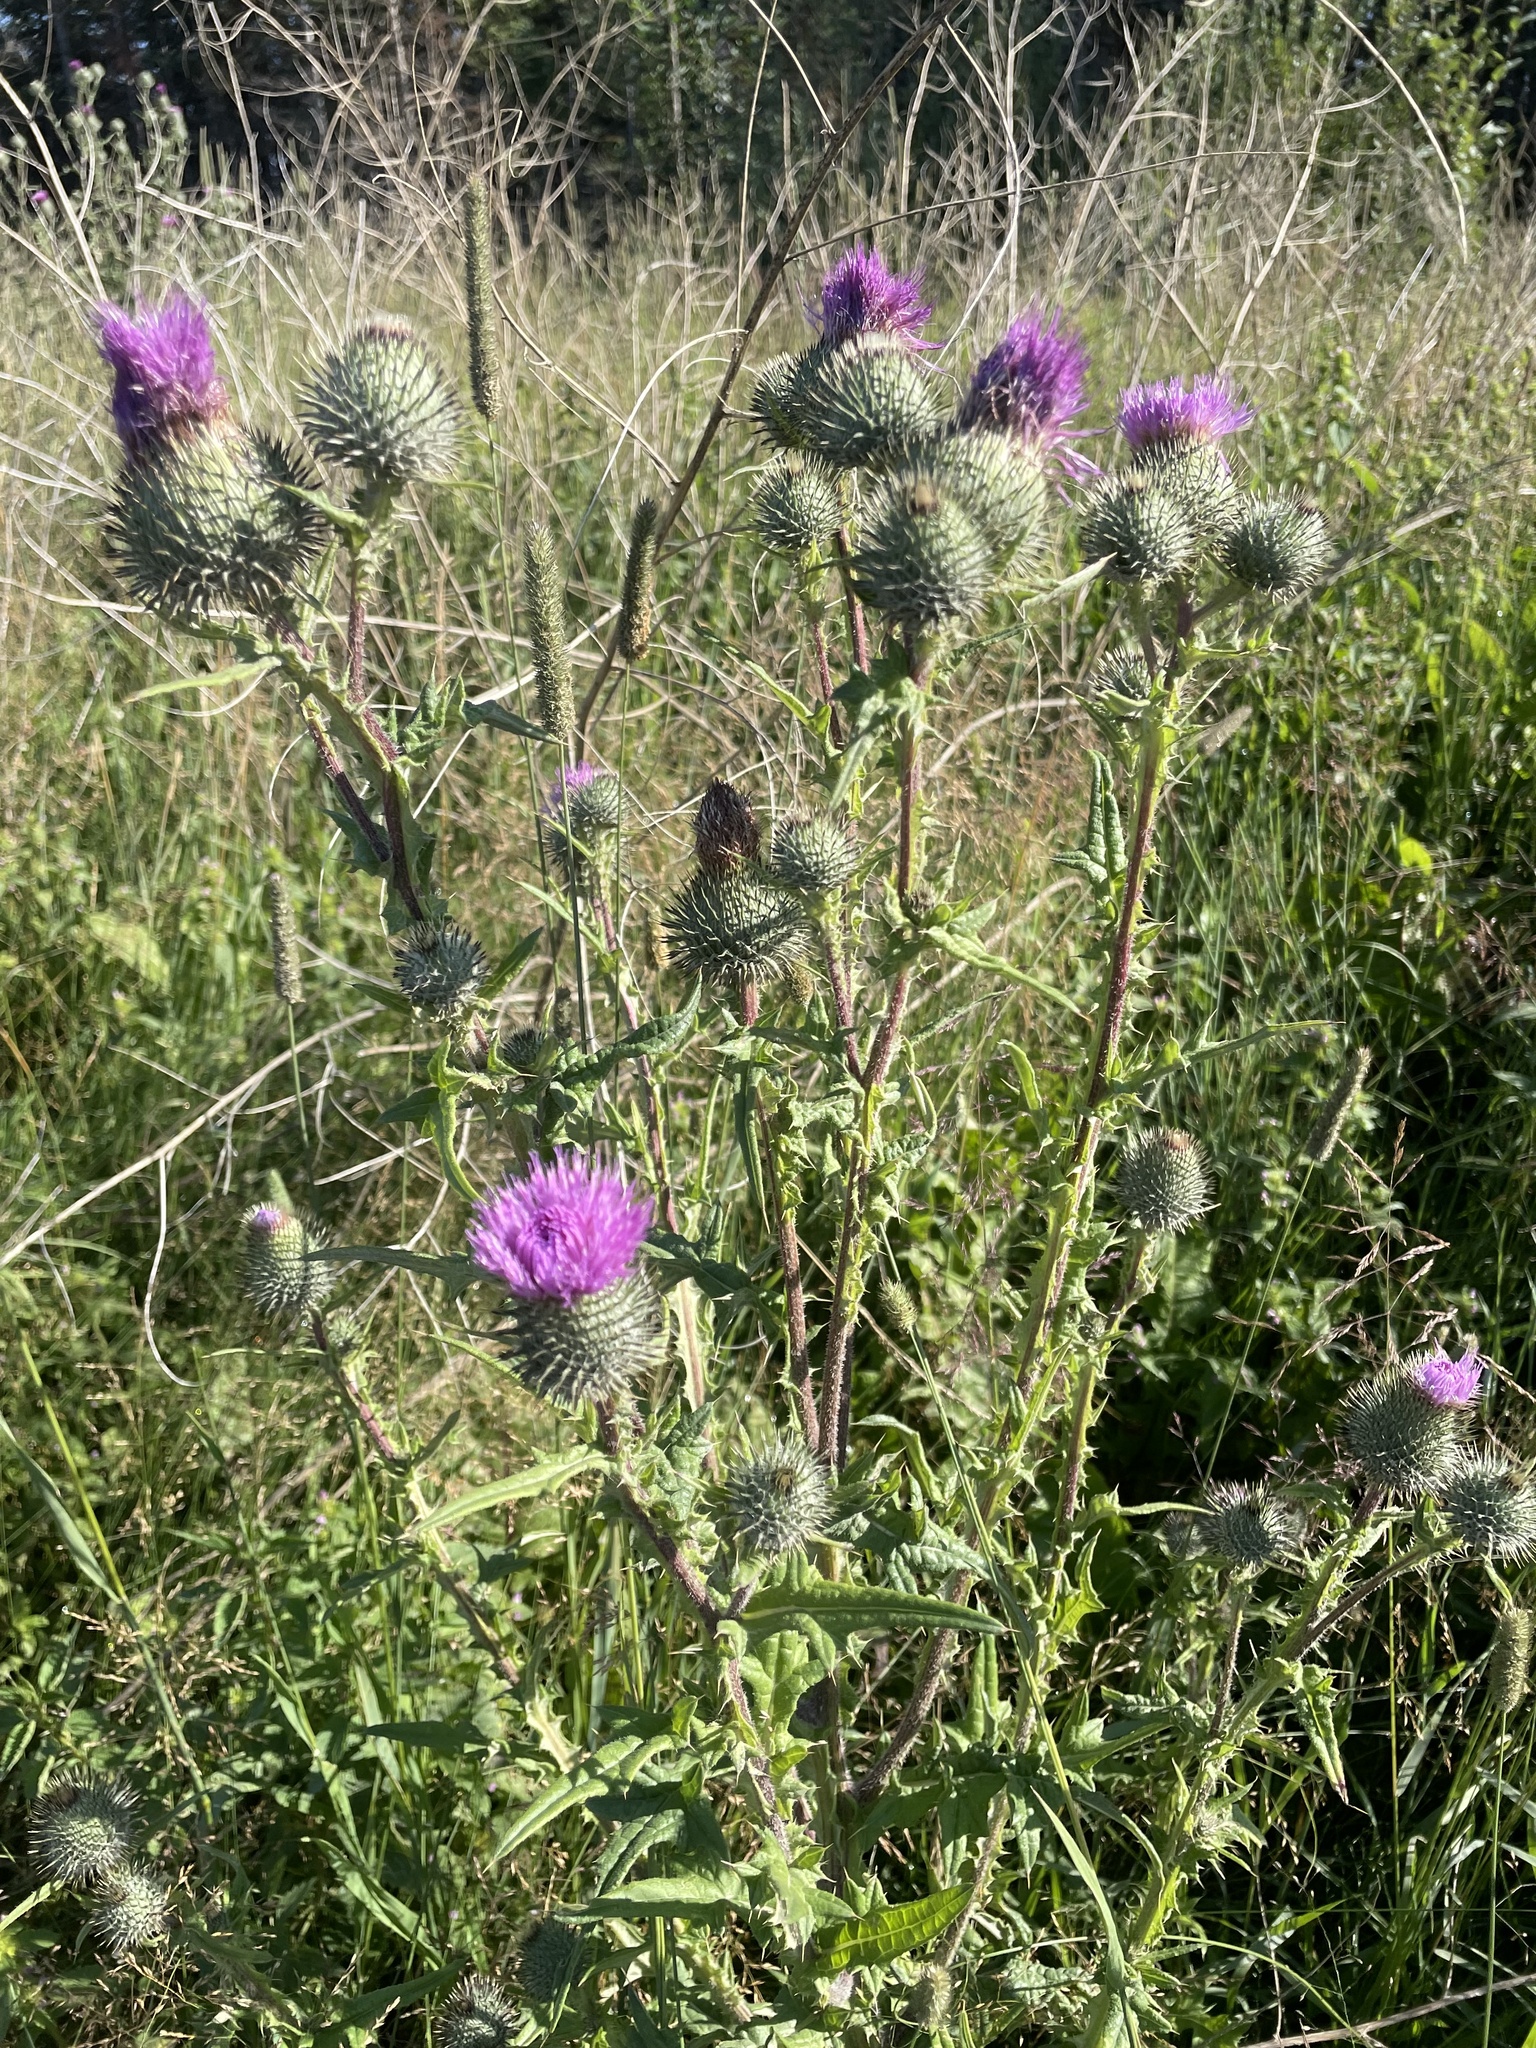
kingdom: Plantae
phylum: Tracheophyta
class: Magnoliopsida
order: Asterales
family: Asteraceae
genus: Cirsium
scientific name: Cirsium vulgare
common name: Bull thistle
